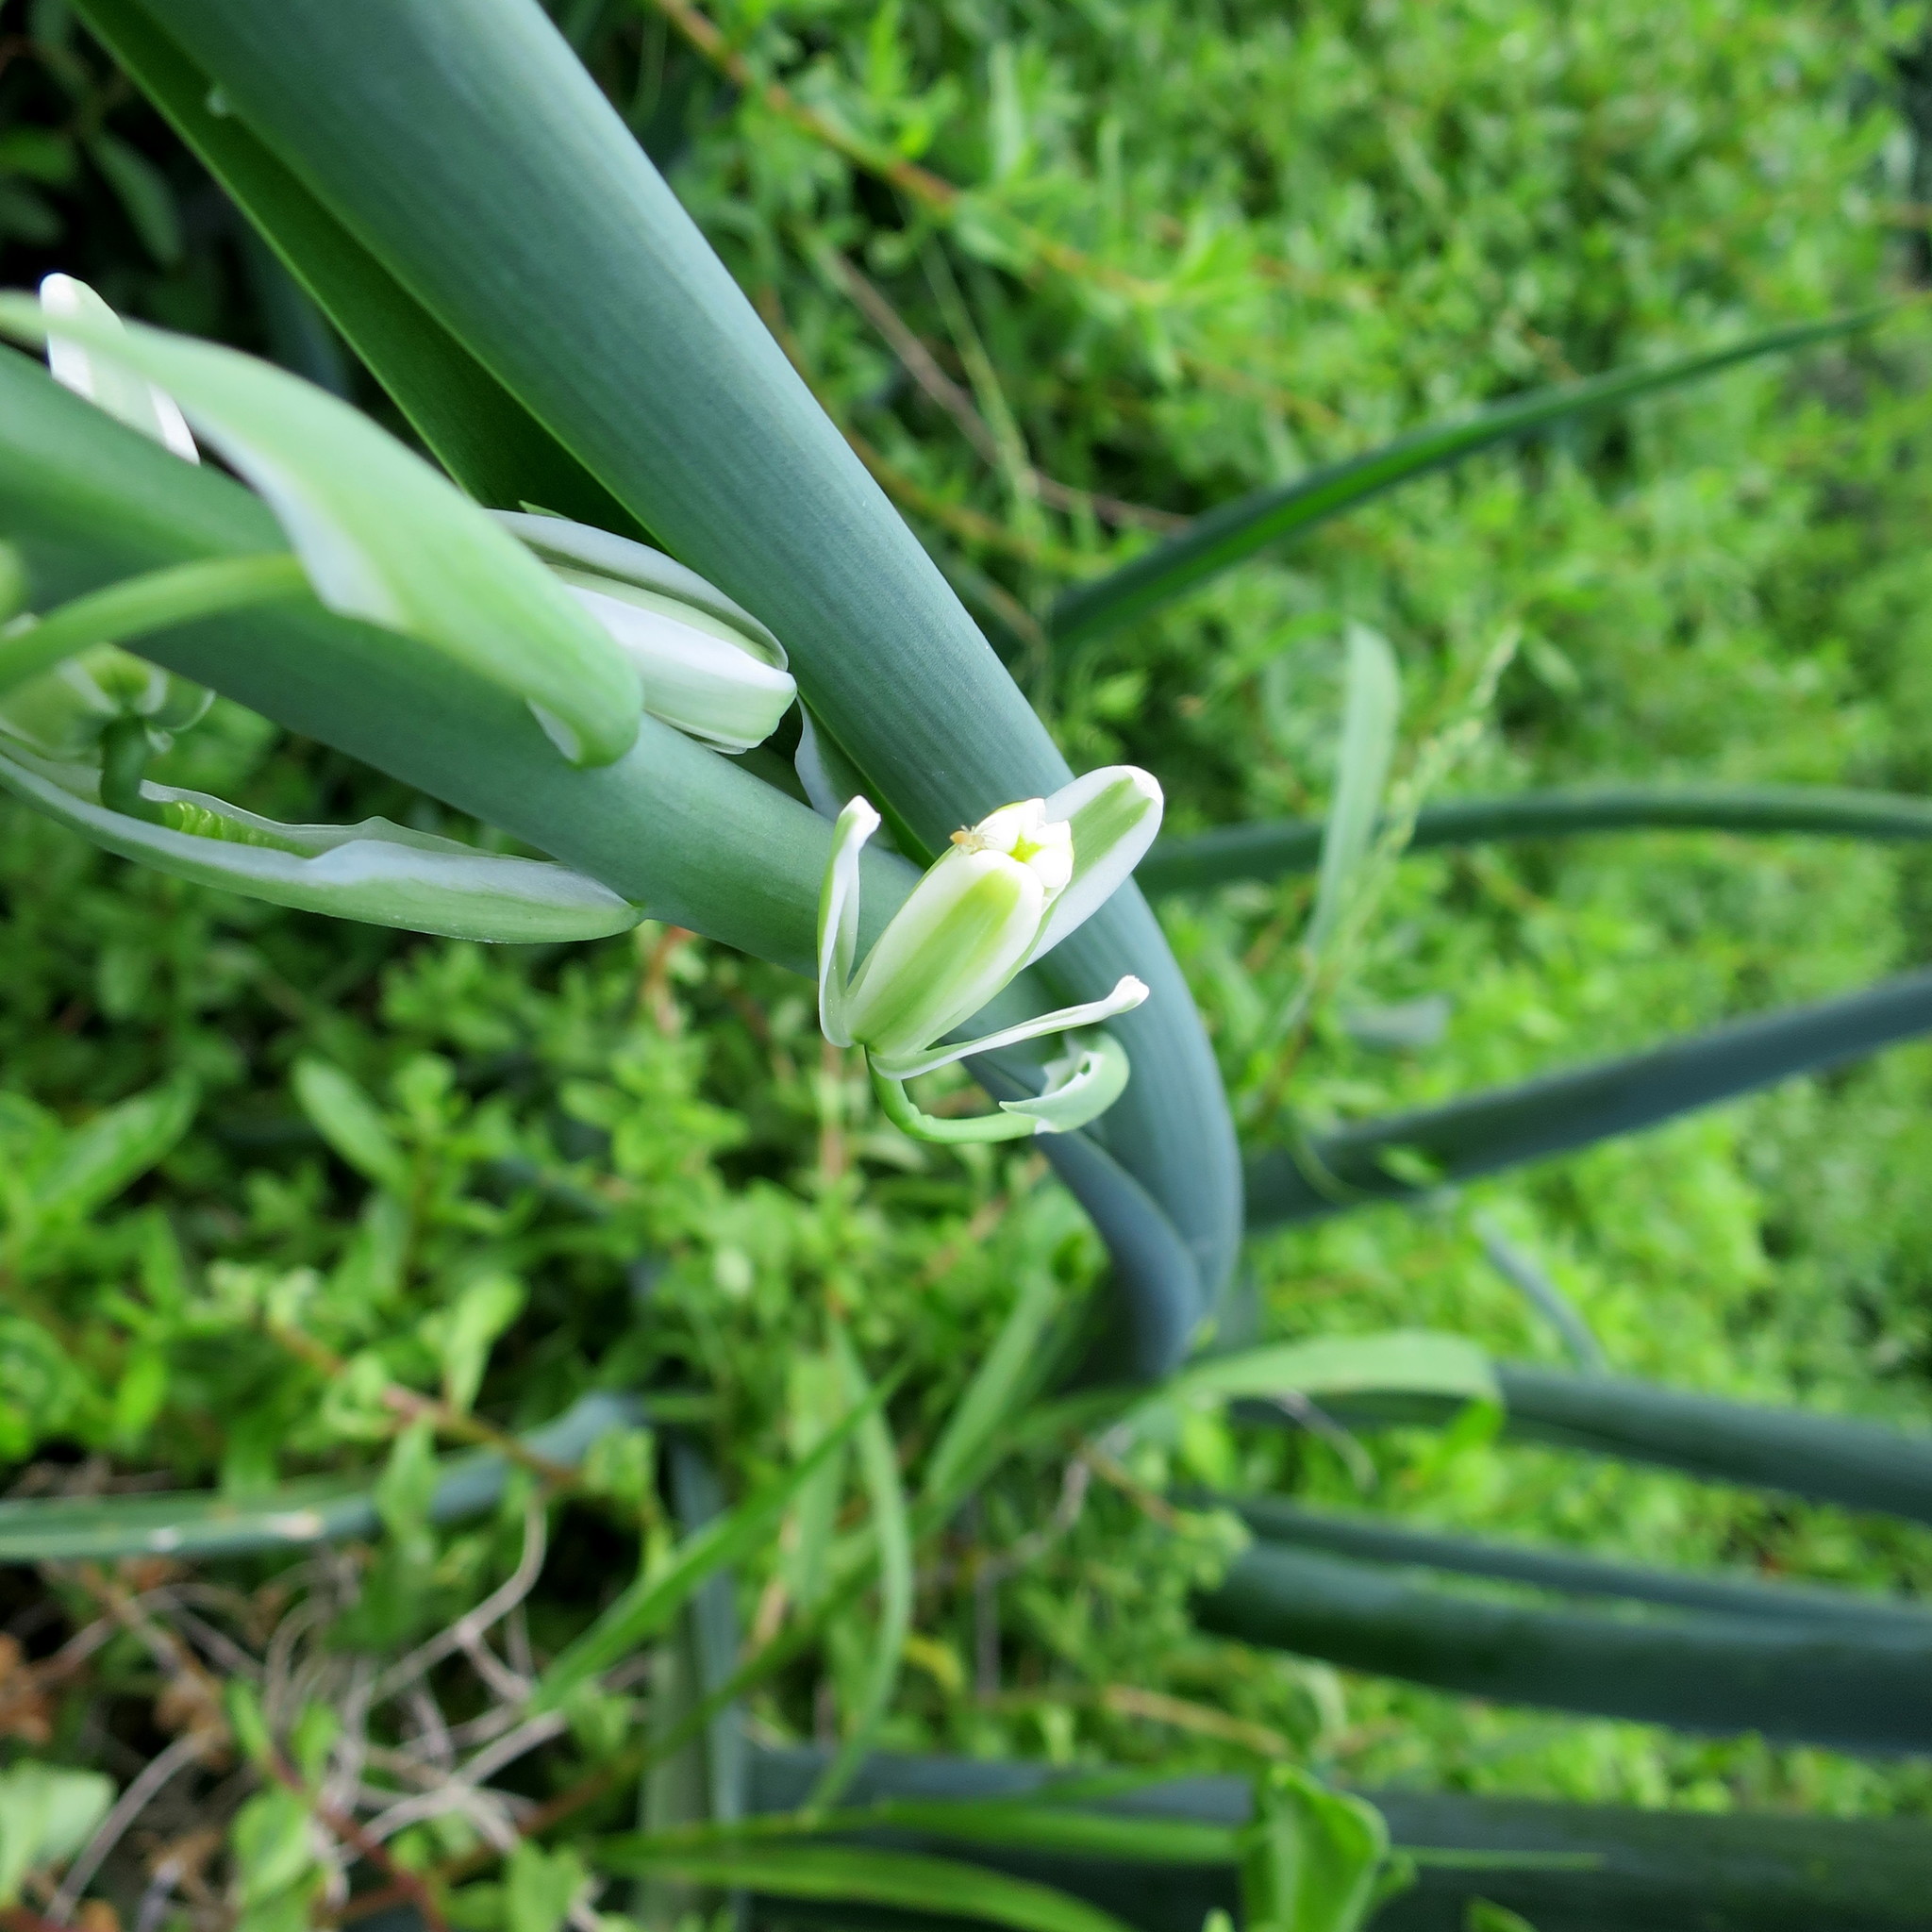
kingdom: Plantae
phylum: Tracheophyta
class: Liliopsida
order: Asparagales
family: Asparagaceae
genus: Albuca
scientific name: Albuca canadensis
